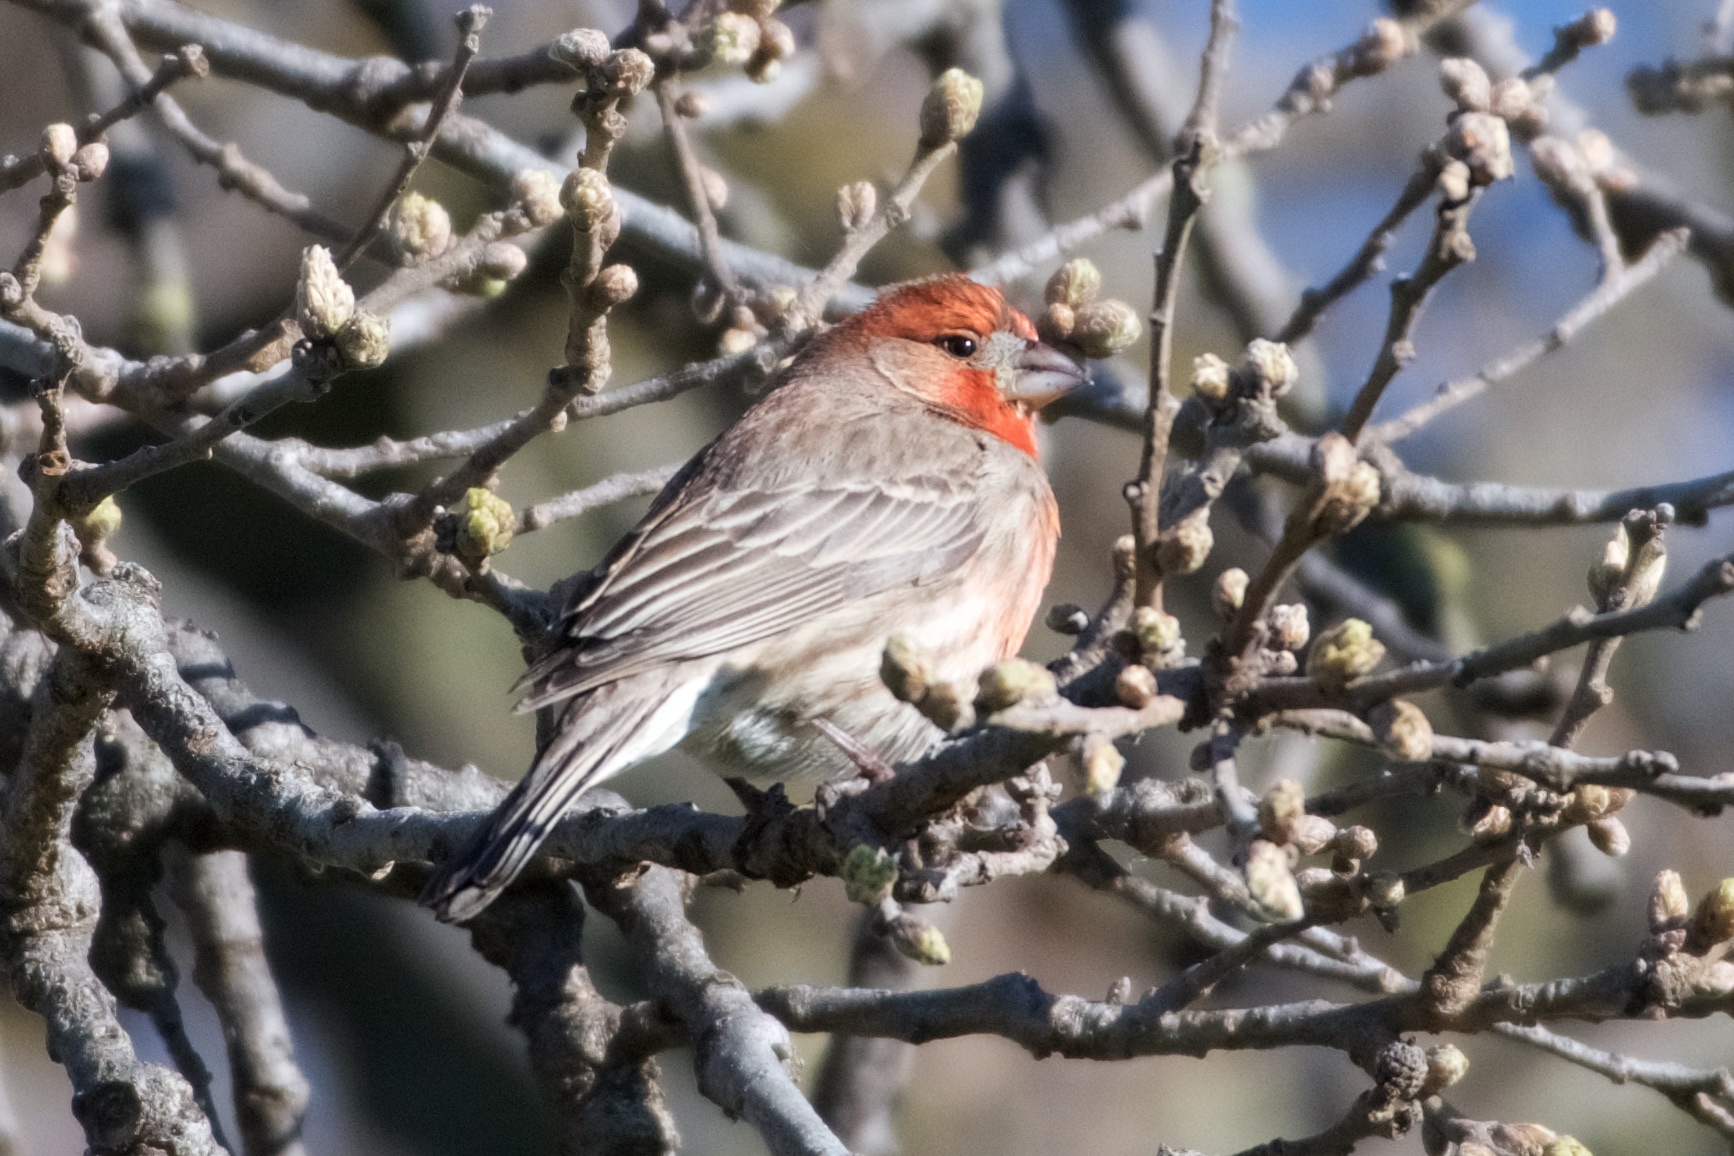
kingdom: Animalia
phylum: Chordata
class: Aves
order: Passeriformes
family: Fringillidae
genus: Haemorhous
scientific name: Haemorhous mexicanus
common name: House finch
